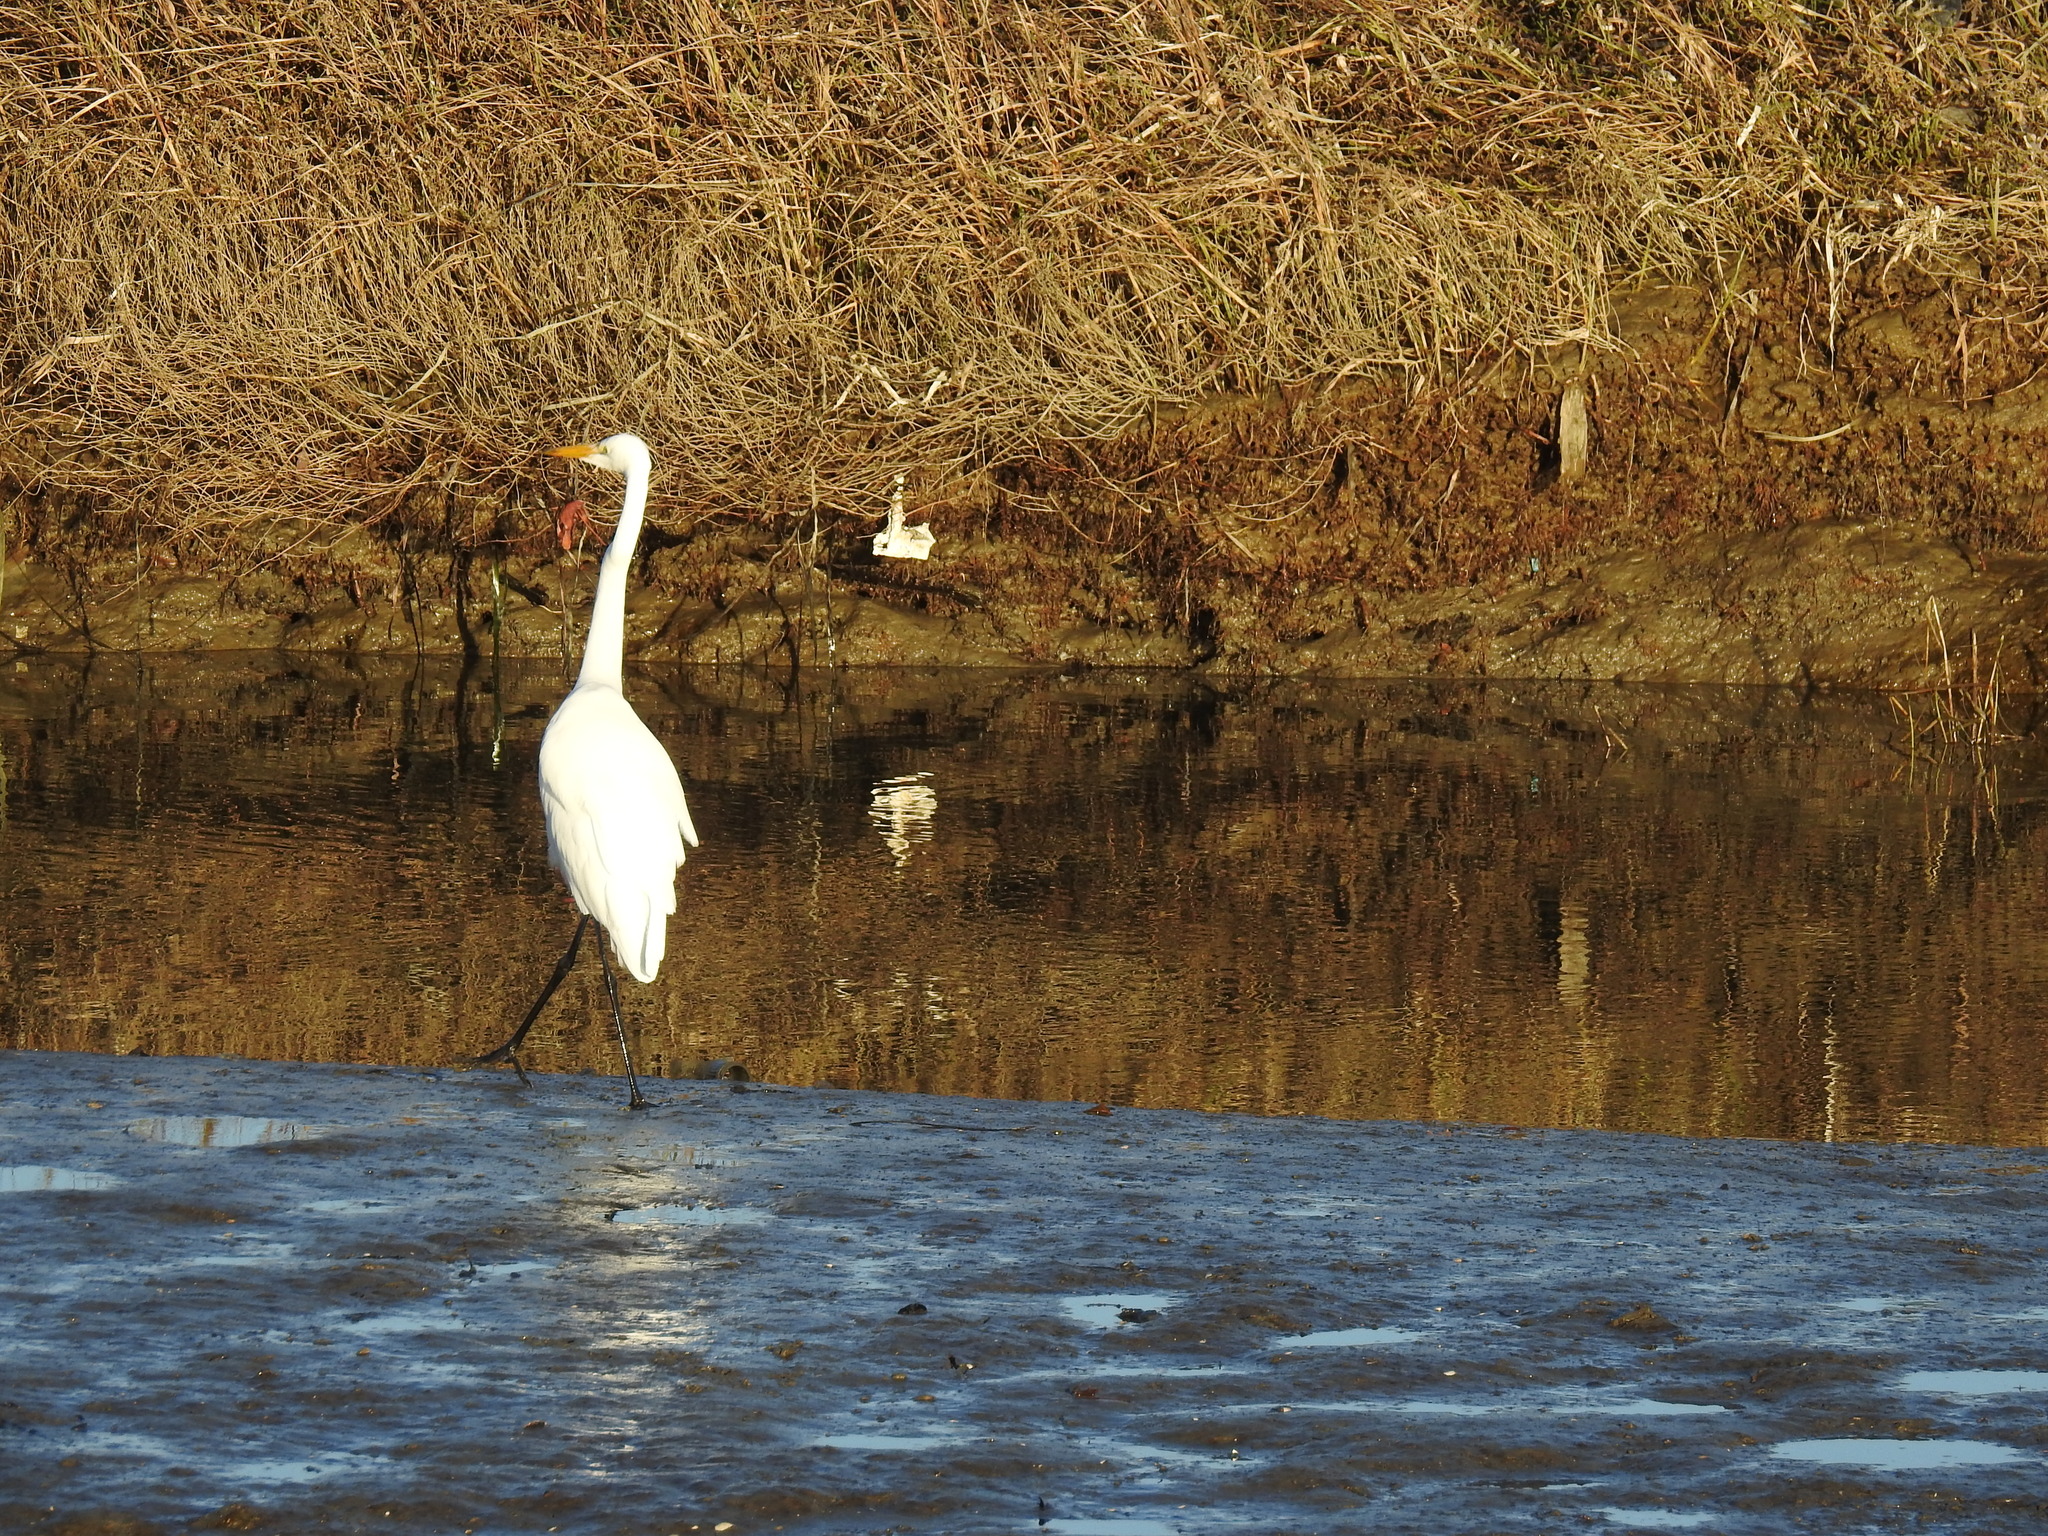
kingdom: Animalia
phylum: Chordata
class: Aves
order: Pelecaniformes
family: Ardeidae
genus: Ardea
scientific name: Ardea alba
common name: Great egret
